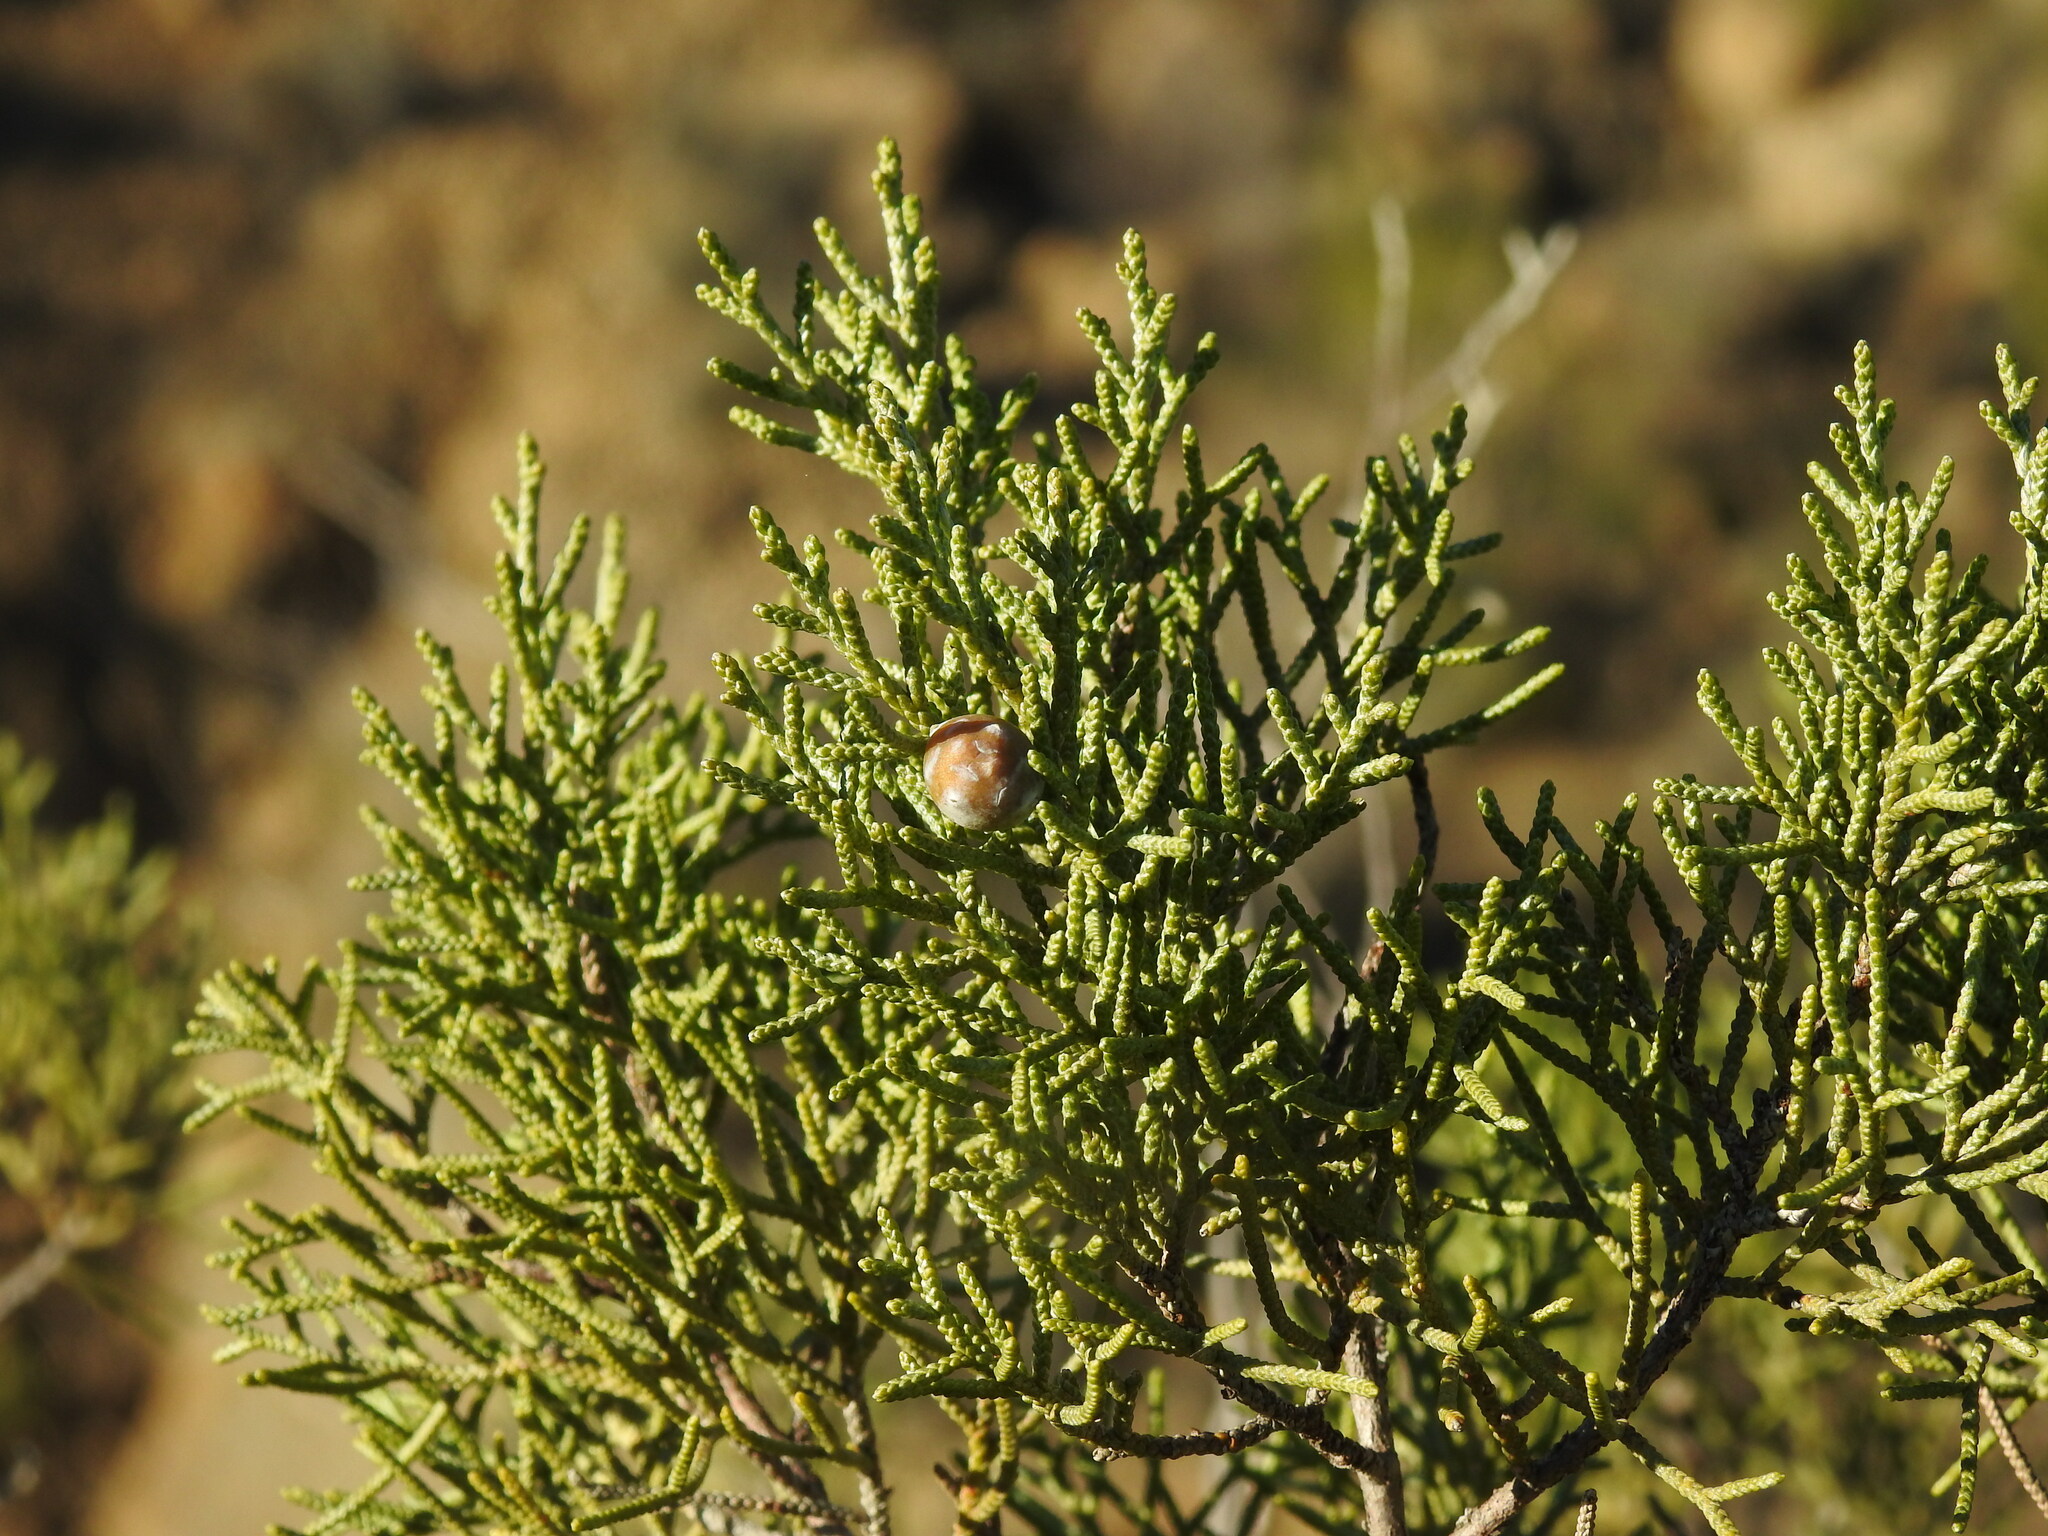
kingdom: Plantae
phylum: Tracheophyta
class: Pinopsida
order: Pinales
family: Cupressaceae
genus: Juniperus
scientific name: Juniperus phoenicea
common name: Phoenician juniper
